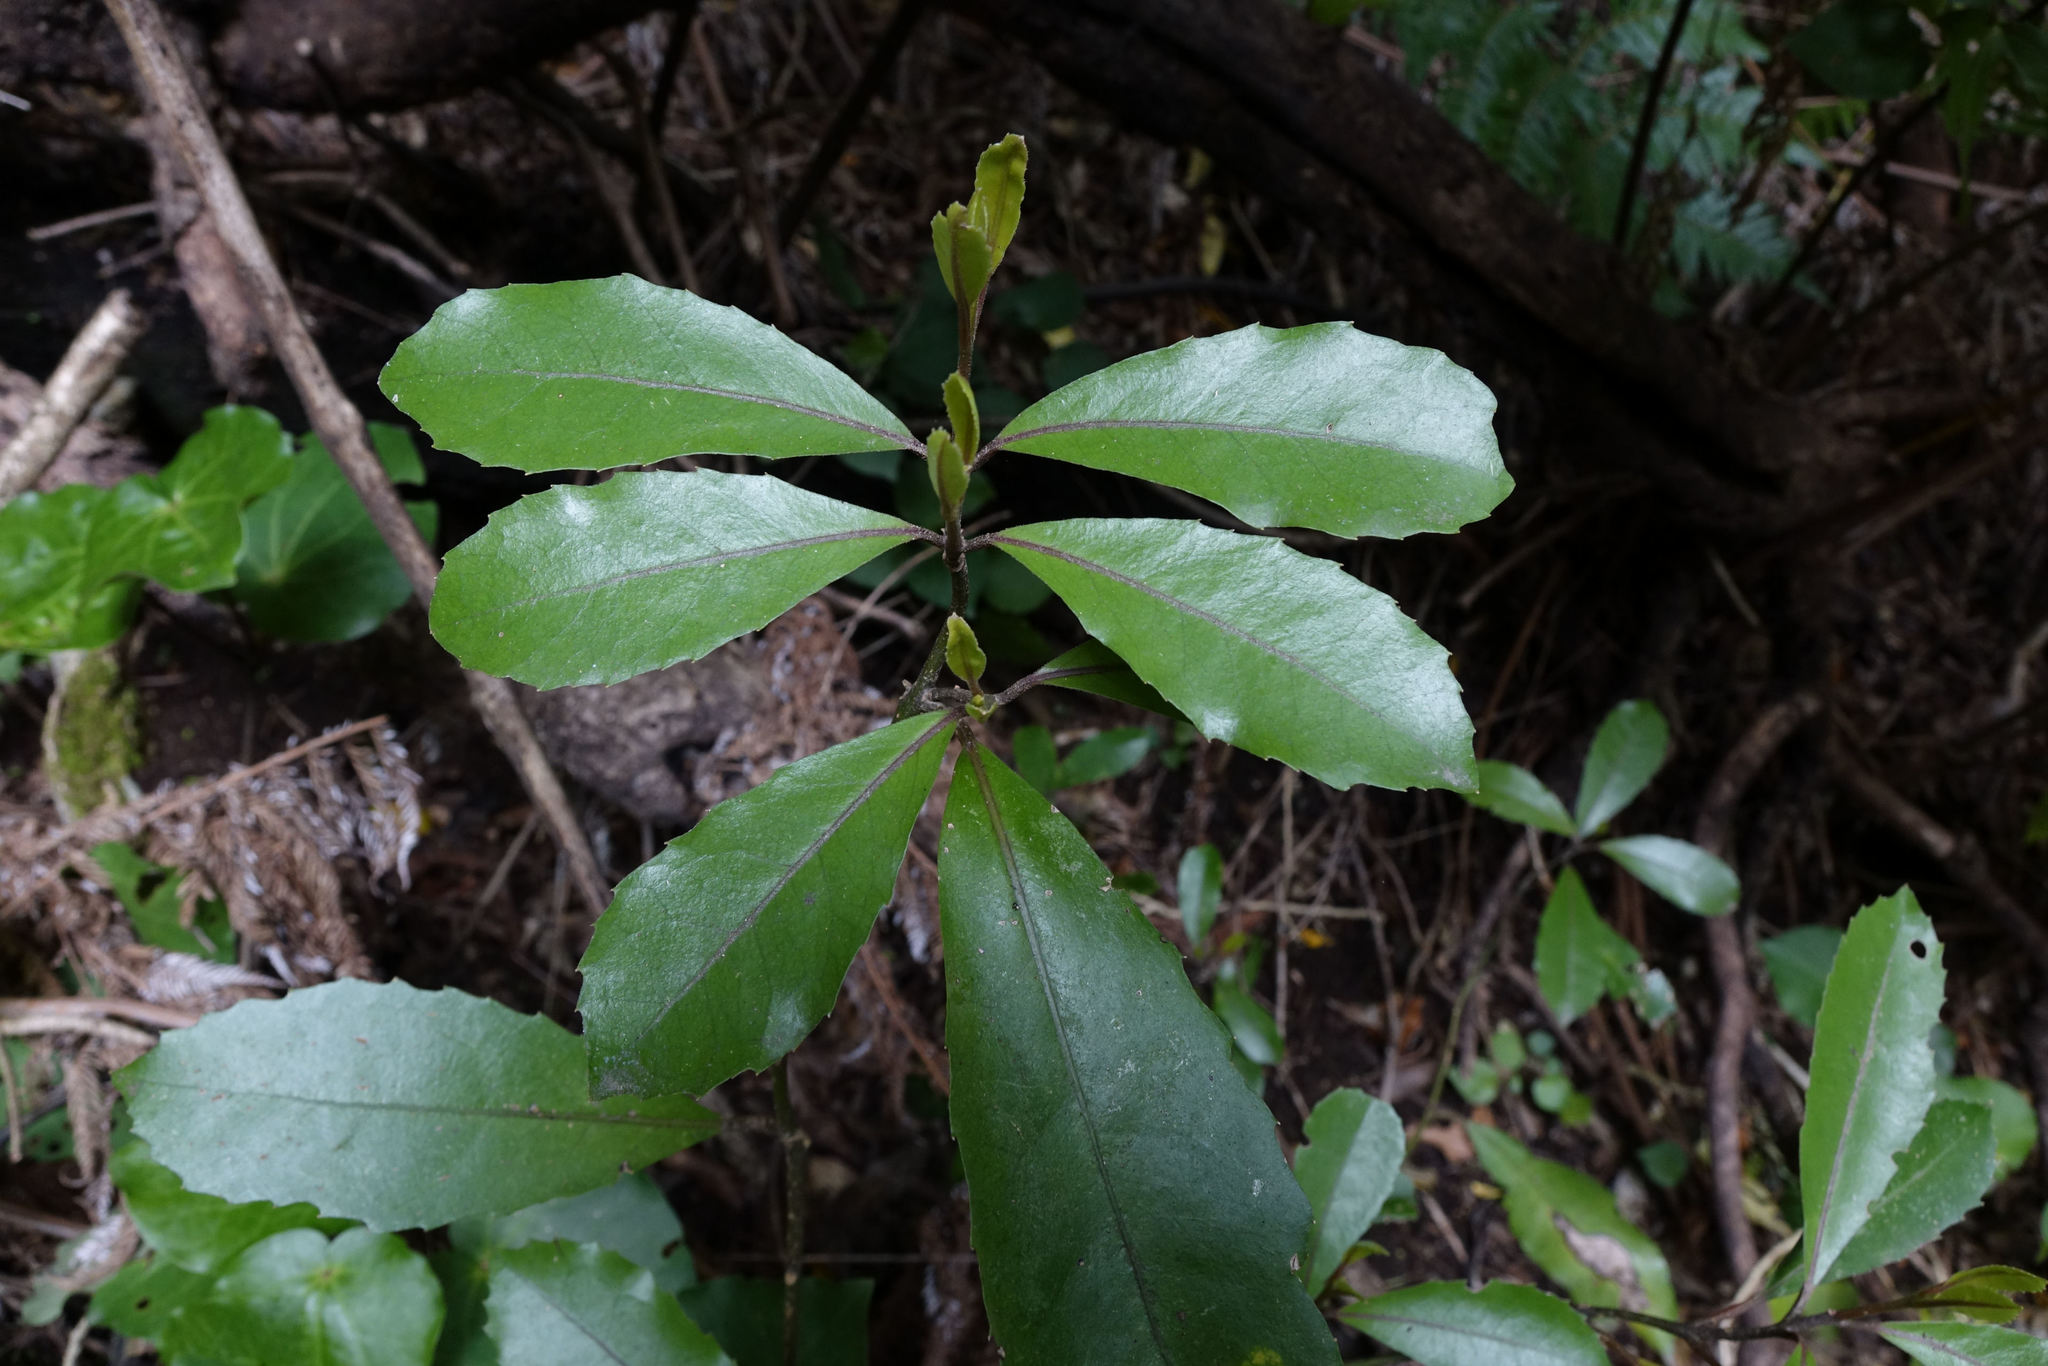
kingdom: Plantae
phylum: Tracheophyta
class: Magnoliopsida
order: Laurales
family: Monimiaceae
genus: Hedycarya
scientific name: Hedycarya arborea
